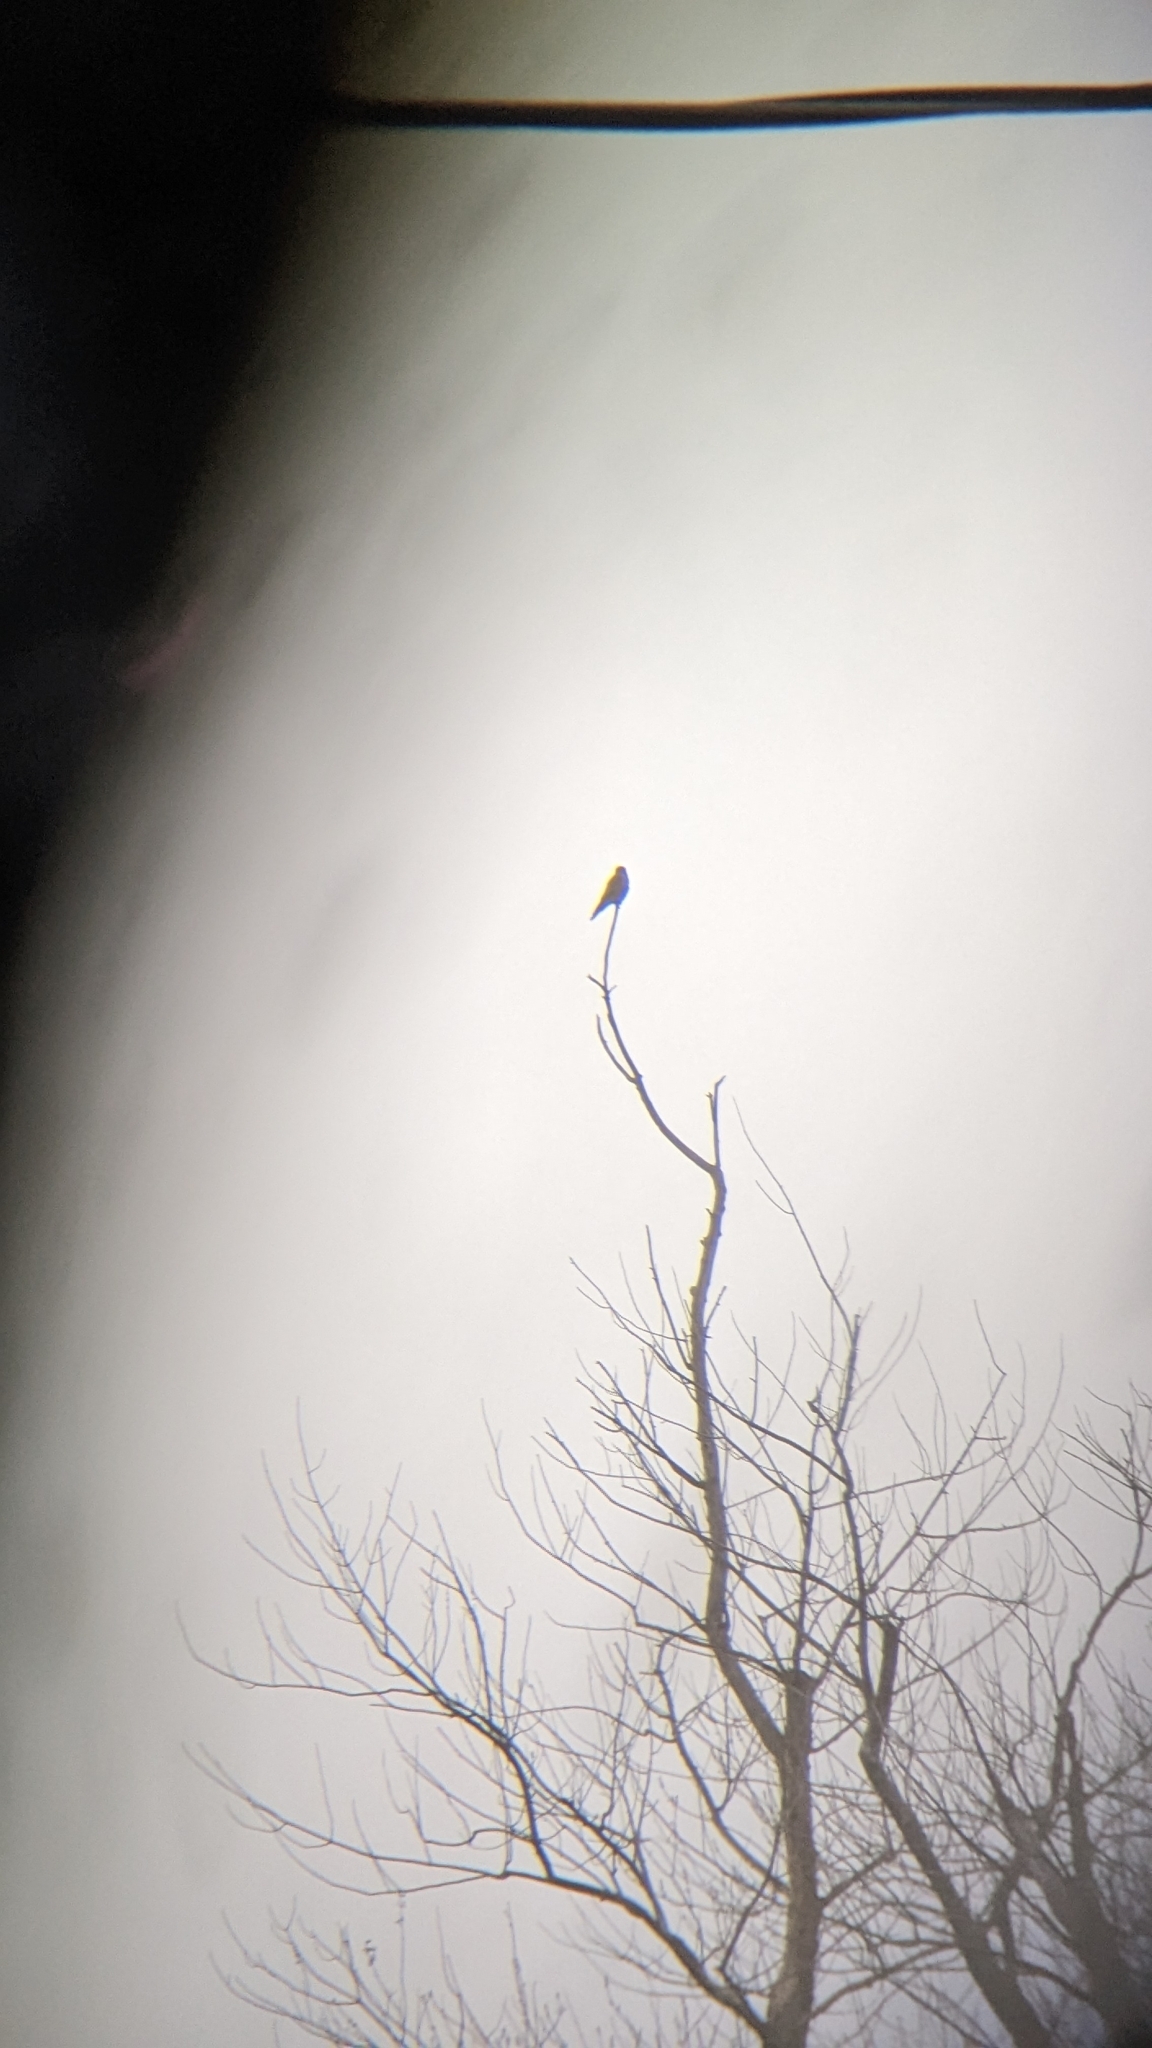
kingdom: Animalia
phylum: Chordata
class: Aves
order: Falconiformes
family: Falconidae
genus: Falco
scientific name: Falco columbarius
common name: Merlin
